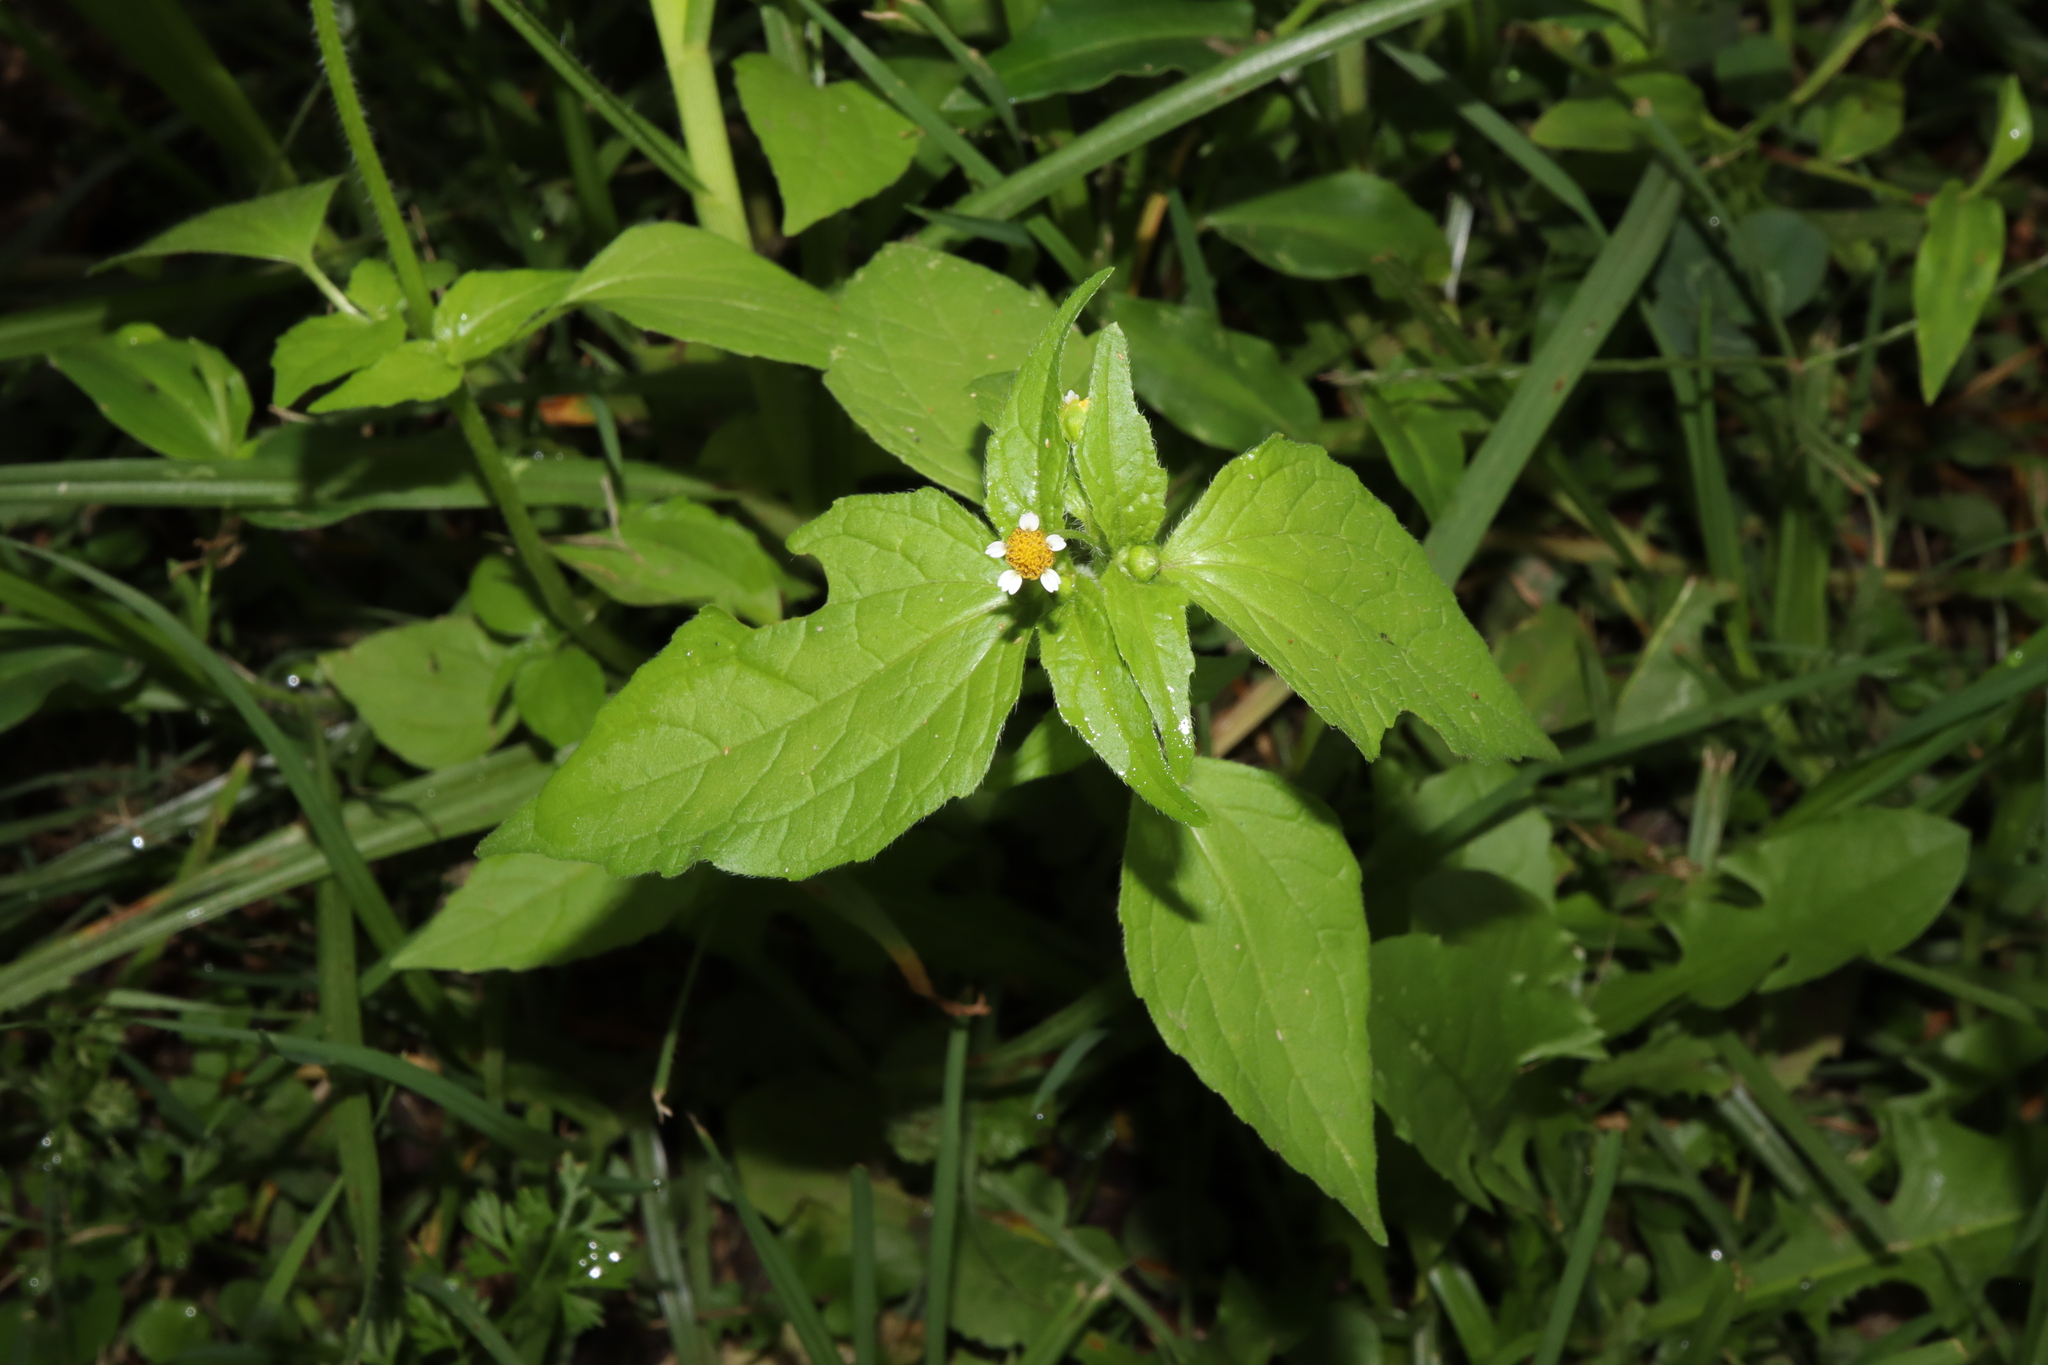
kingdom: Plantae
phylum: Tracheophyta
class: Magnoliopsida
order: Asterales
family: Asteraceae
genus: Galinsoga
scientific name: Galinsoga parviflora
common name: Gallant soldier
